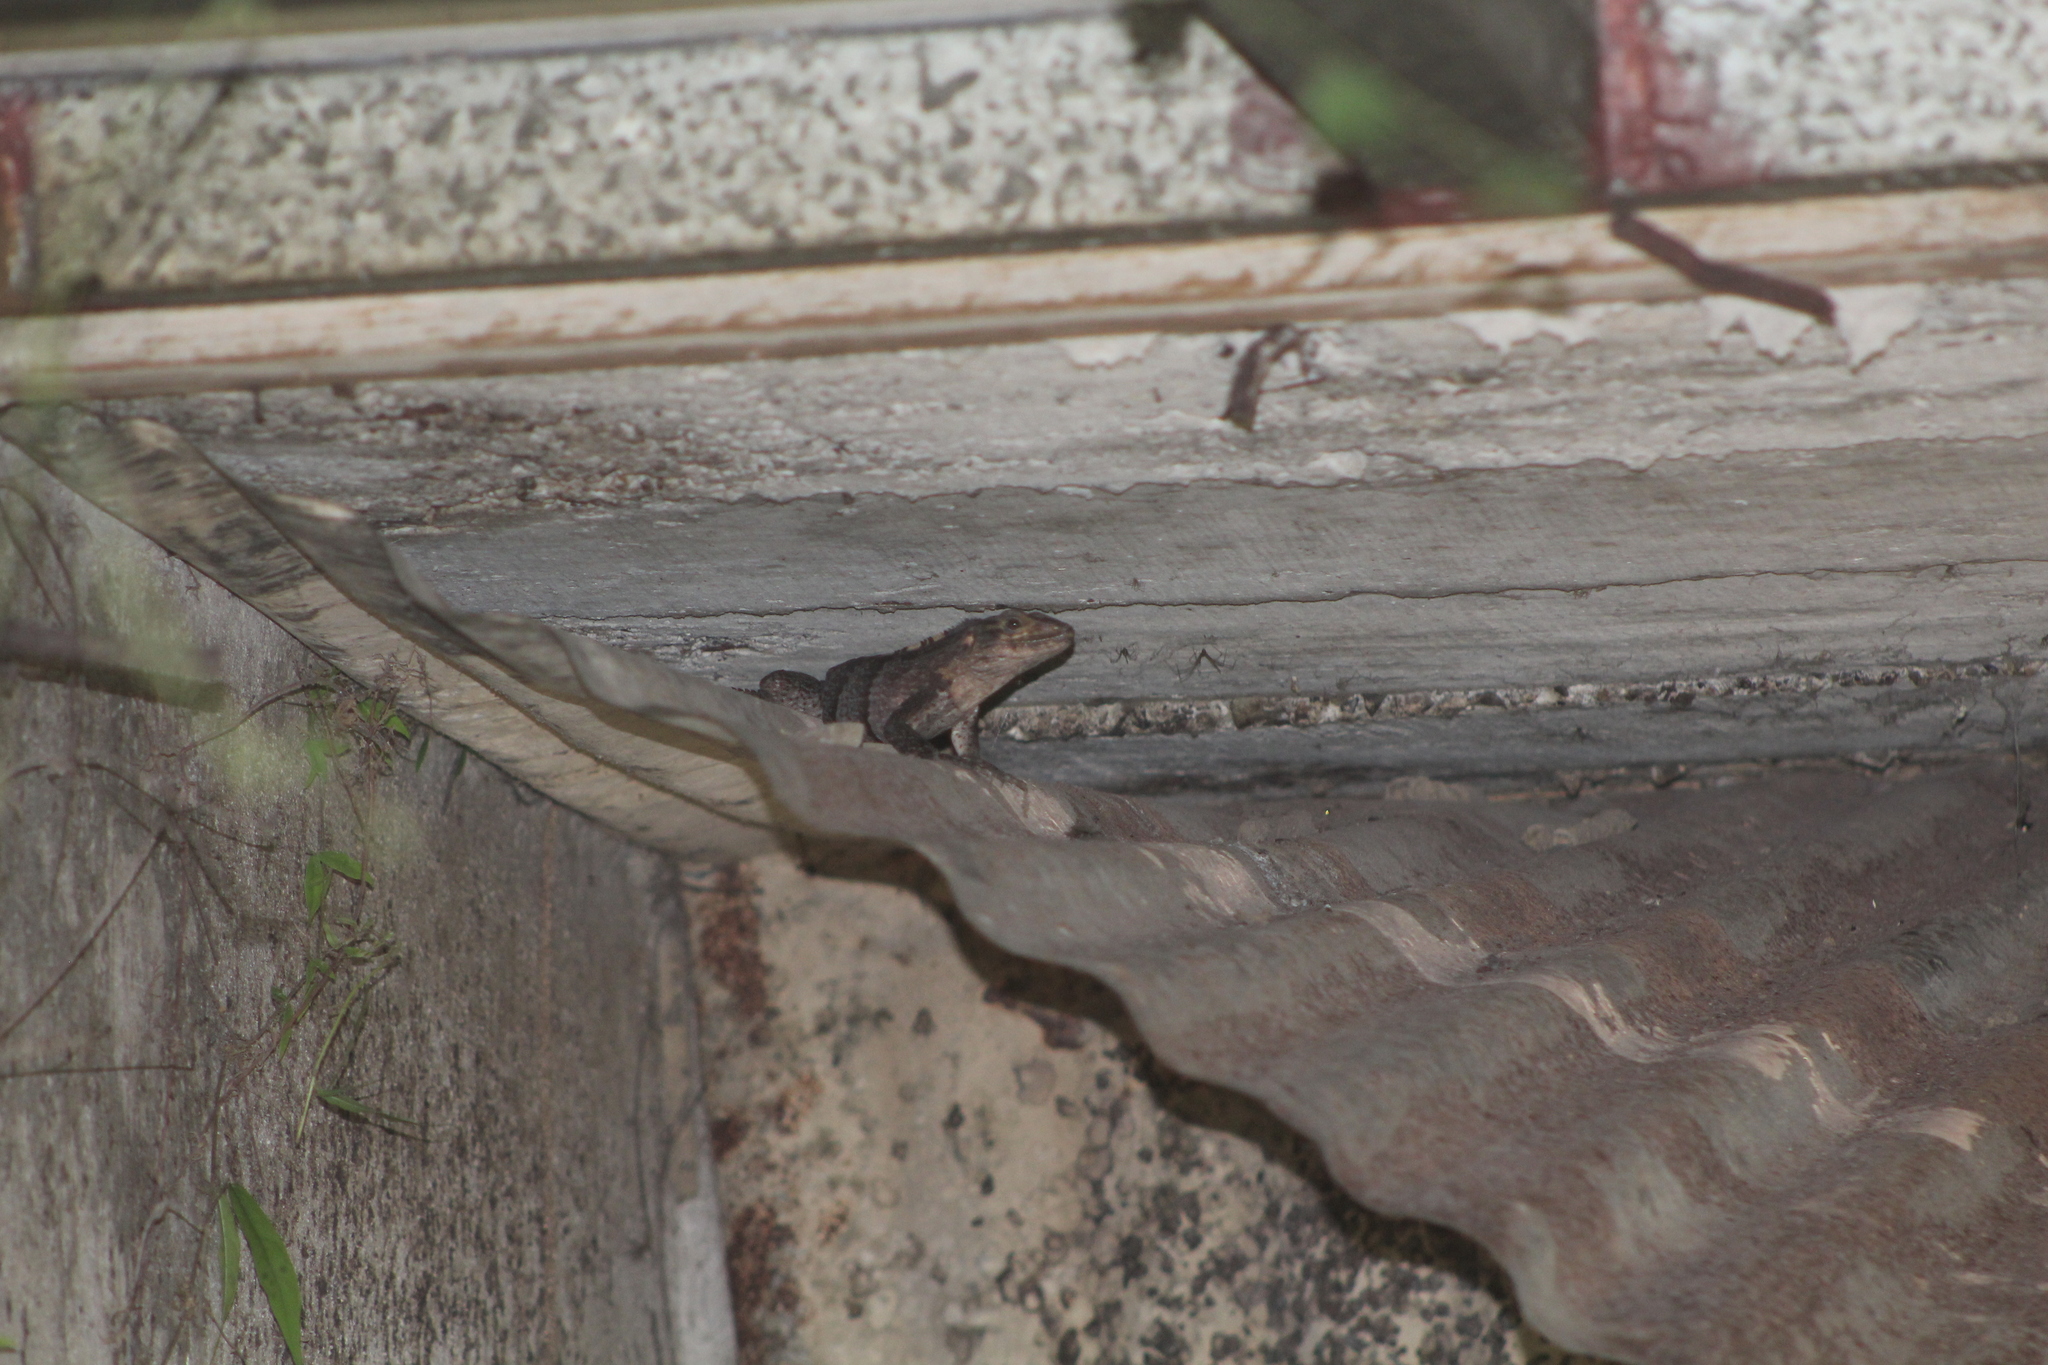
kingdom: Animalia
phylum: Chordata
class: Squamata
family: Iguanidae
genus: Ctenosaura
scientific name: Ctenosaura similis
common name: Black spiny-tailed iguana
